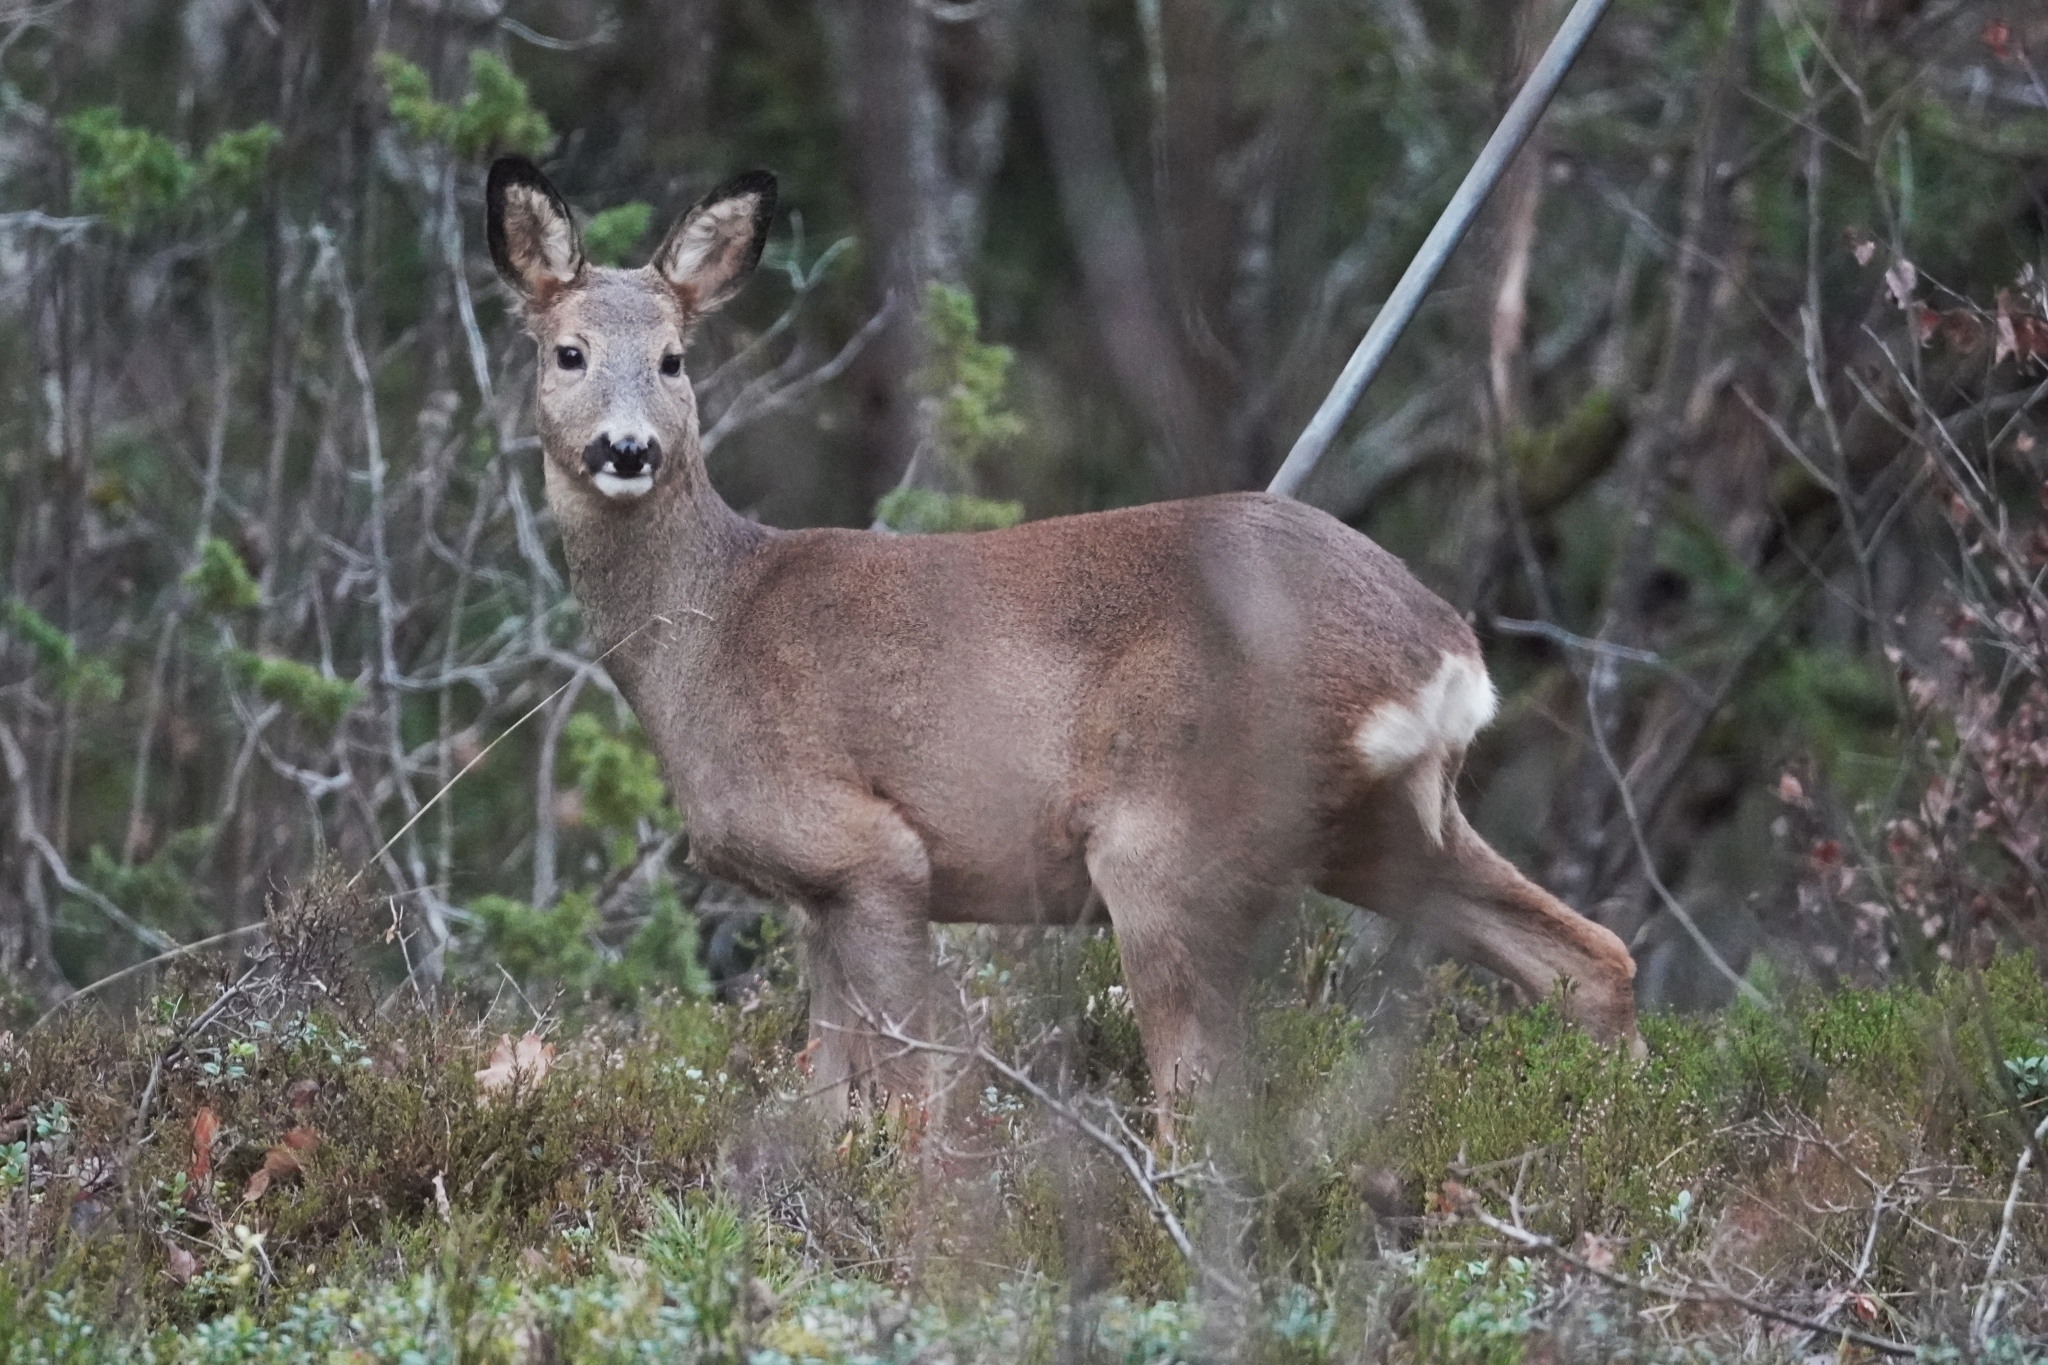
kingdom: Animalia
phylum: Chordata
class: Mammalia
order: Artiodactyla
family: Cervidae
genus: Capreolus
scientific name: Capreolus capreolus
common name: Western roe deer
